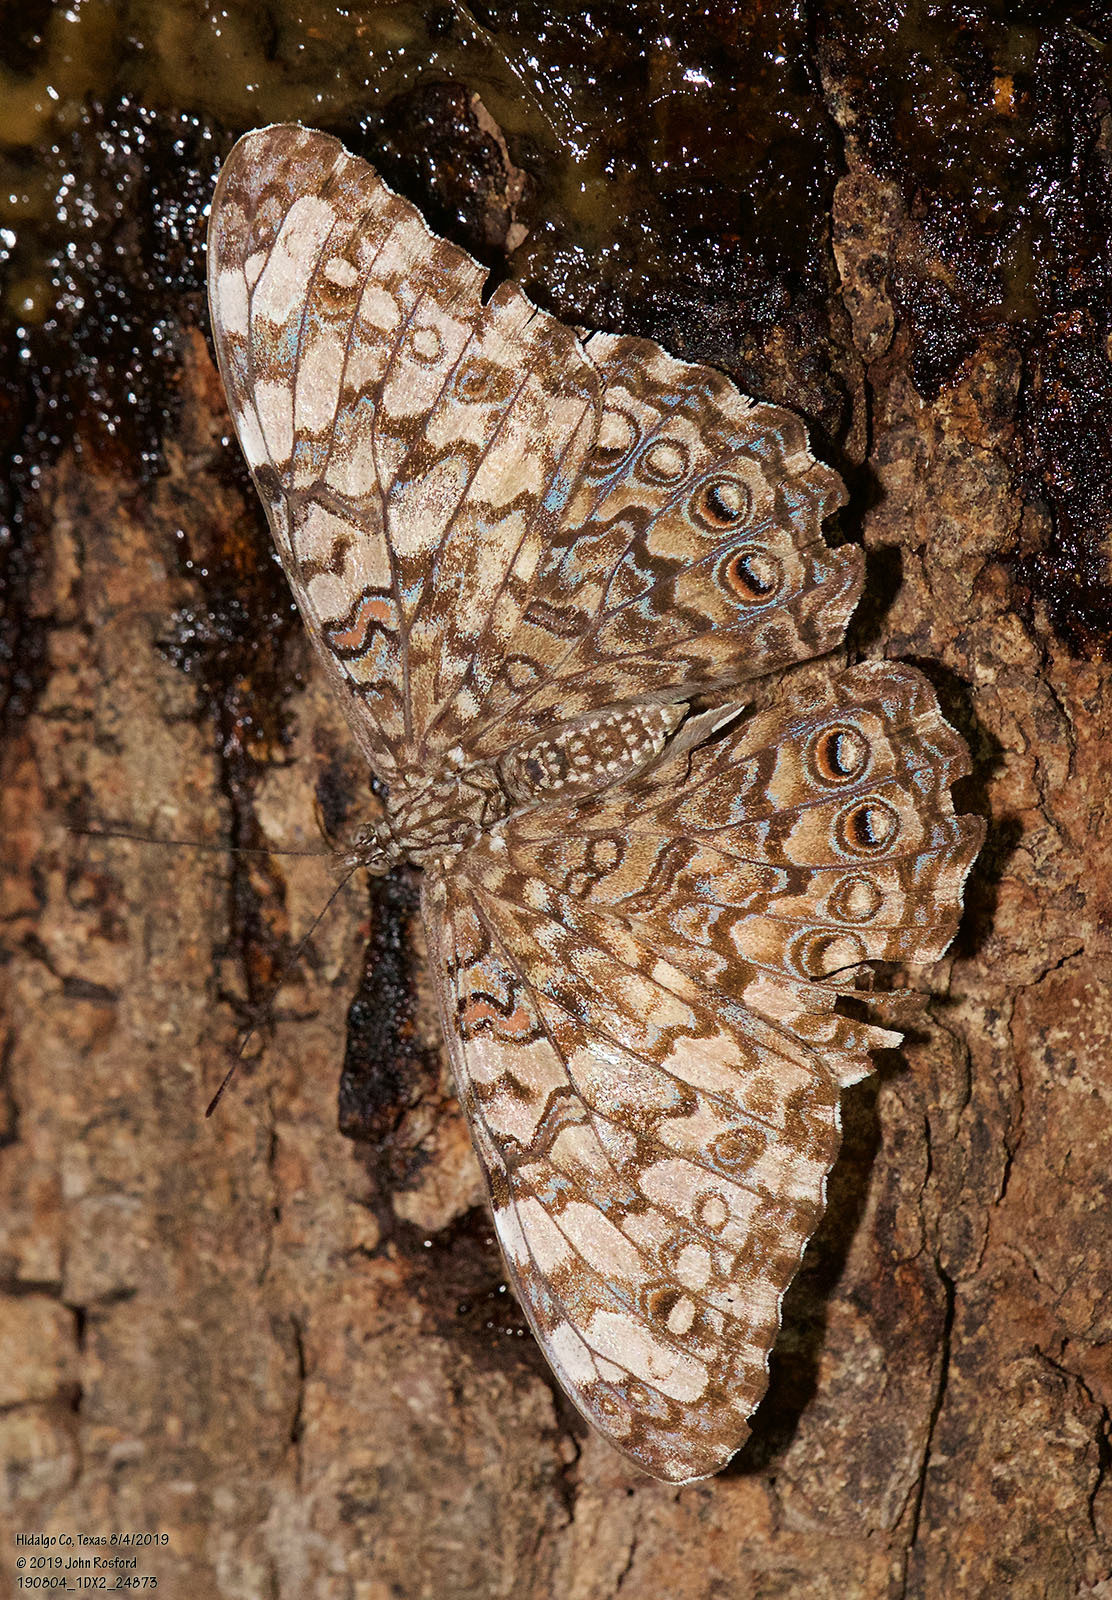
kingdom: Animalia
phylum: Arthropoda
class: Insecta
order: Lepidoptera
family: Nymphalidae
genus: Hamadryas
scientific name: Hamadryas februa
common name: Gray cracker
